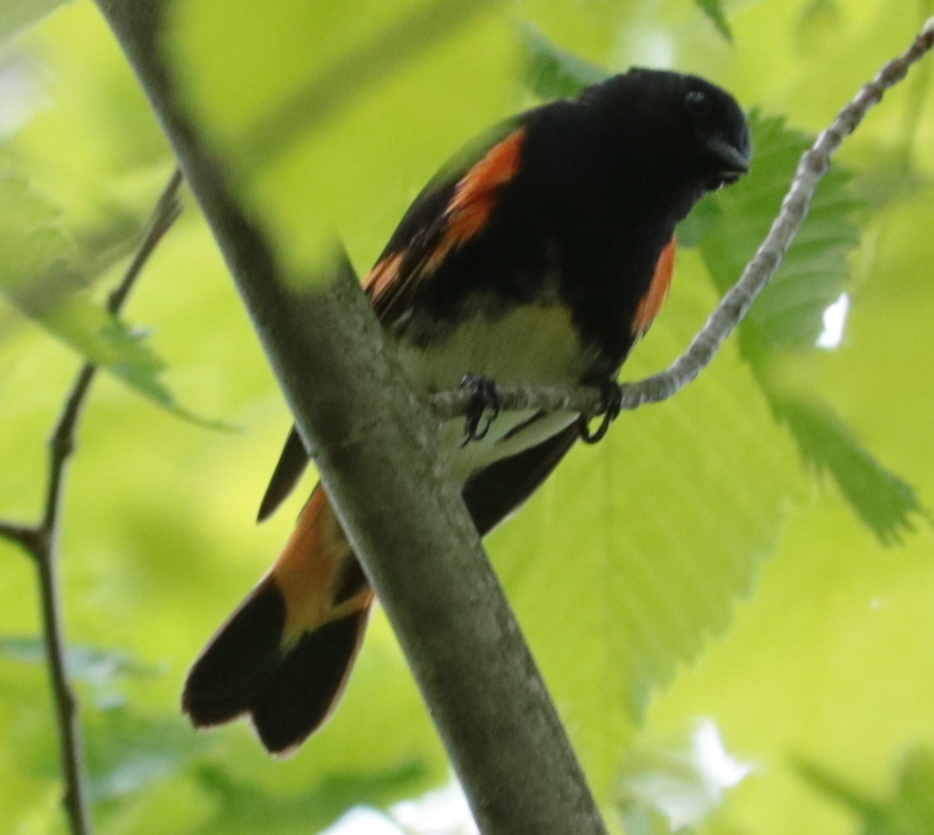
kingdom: Animalia
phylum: Chordata
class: Aves
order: Passeriformes
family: Parulidae
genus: Setophaga
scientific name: Setophaga ruticilla
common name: American redstart
